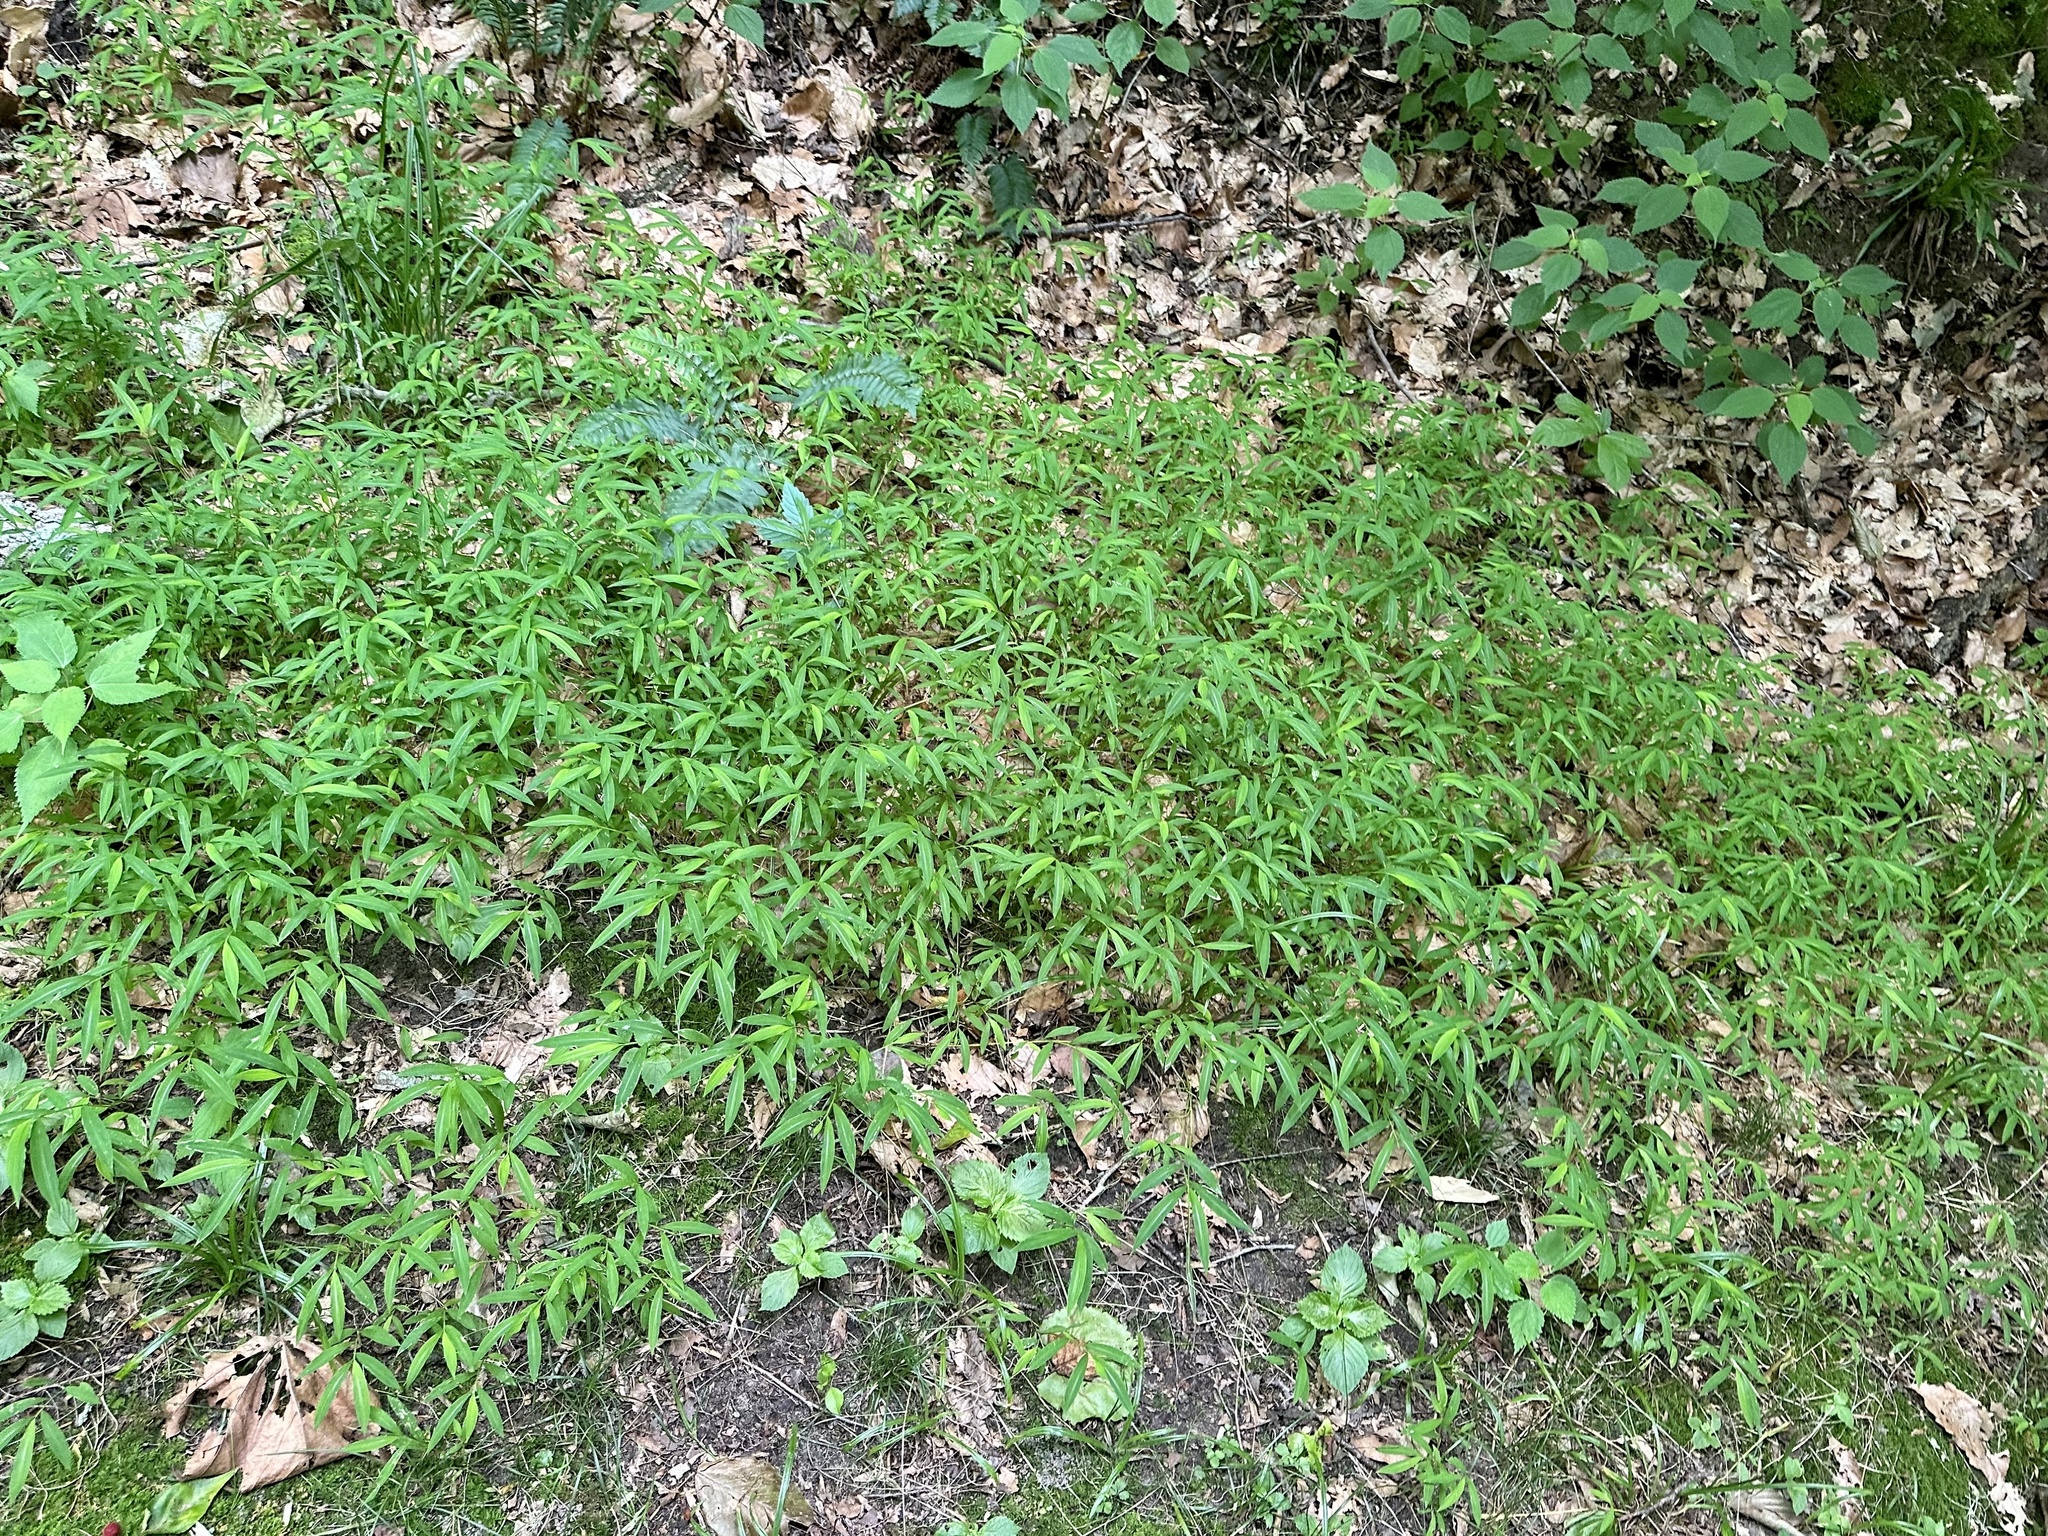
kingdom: Plantae
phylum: Tracheophyta
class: Liliopsida
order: Poales
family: Poaceae
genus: Microstegium
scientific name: Microstegium vimineum
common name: Japanese stiltgrass
